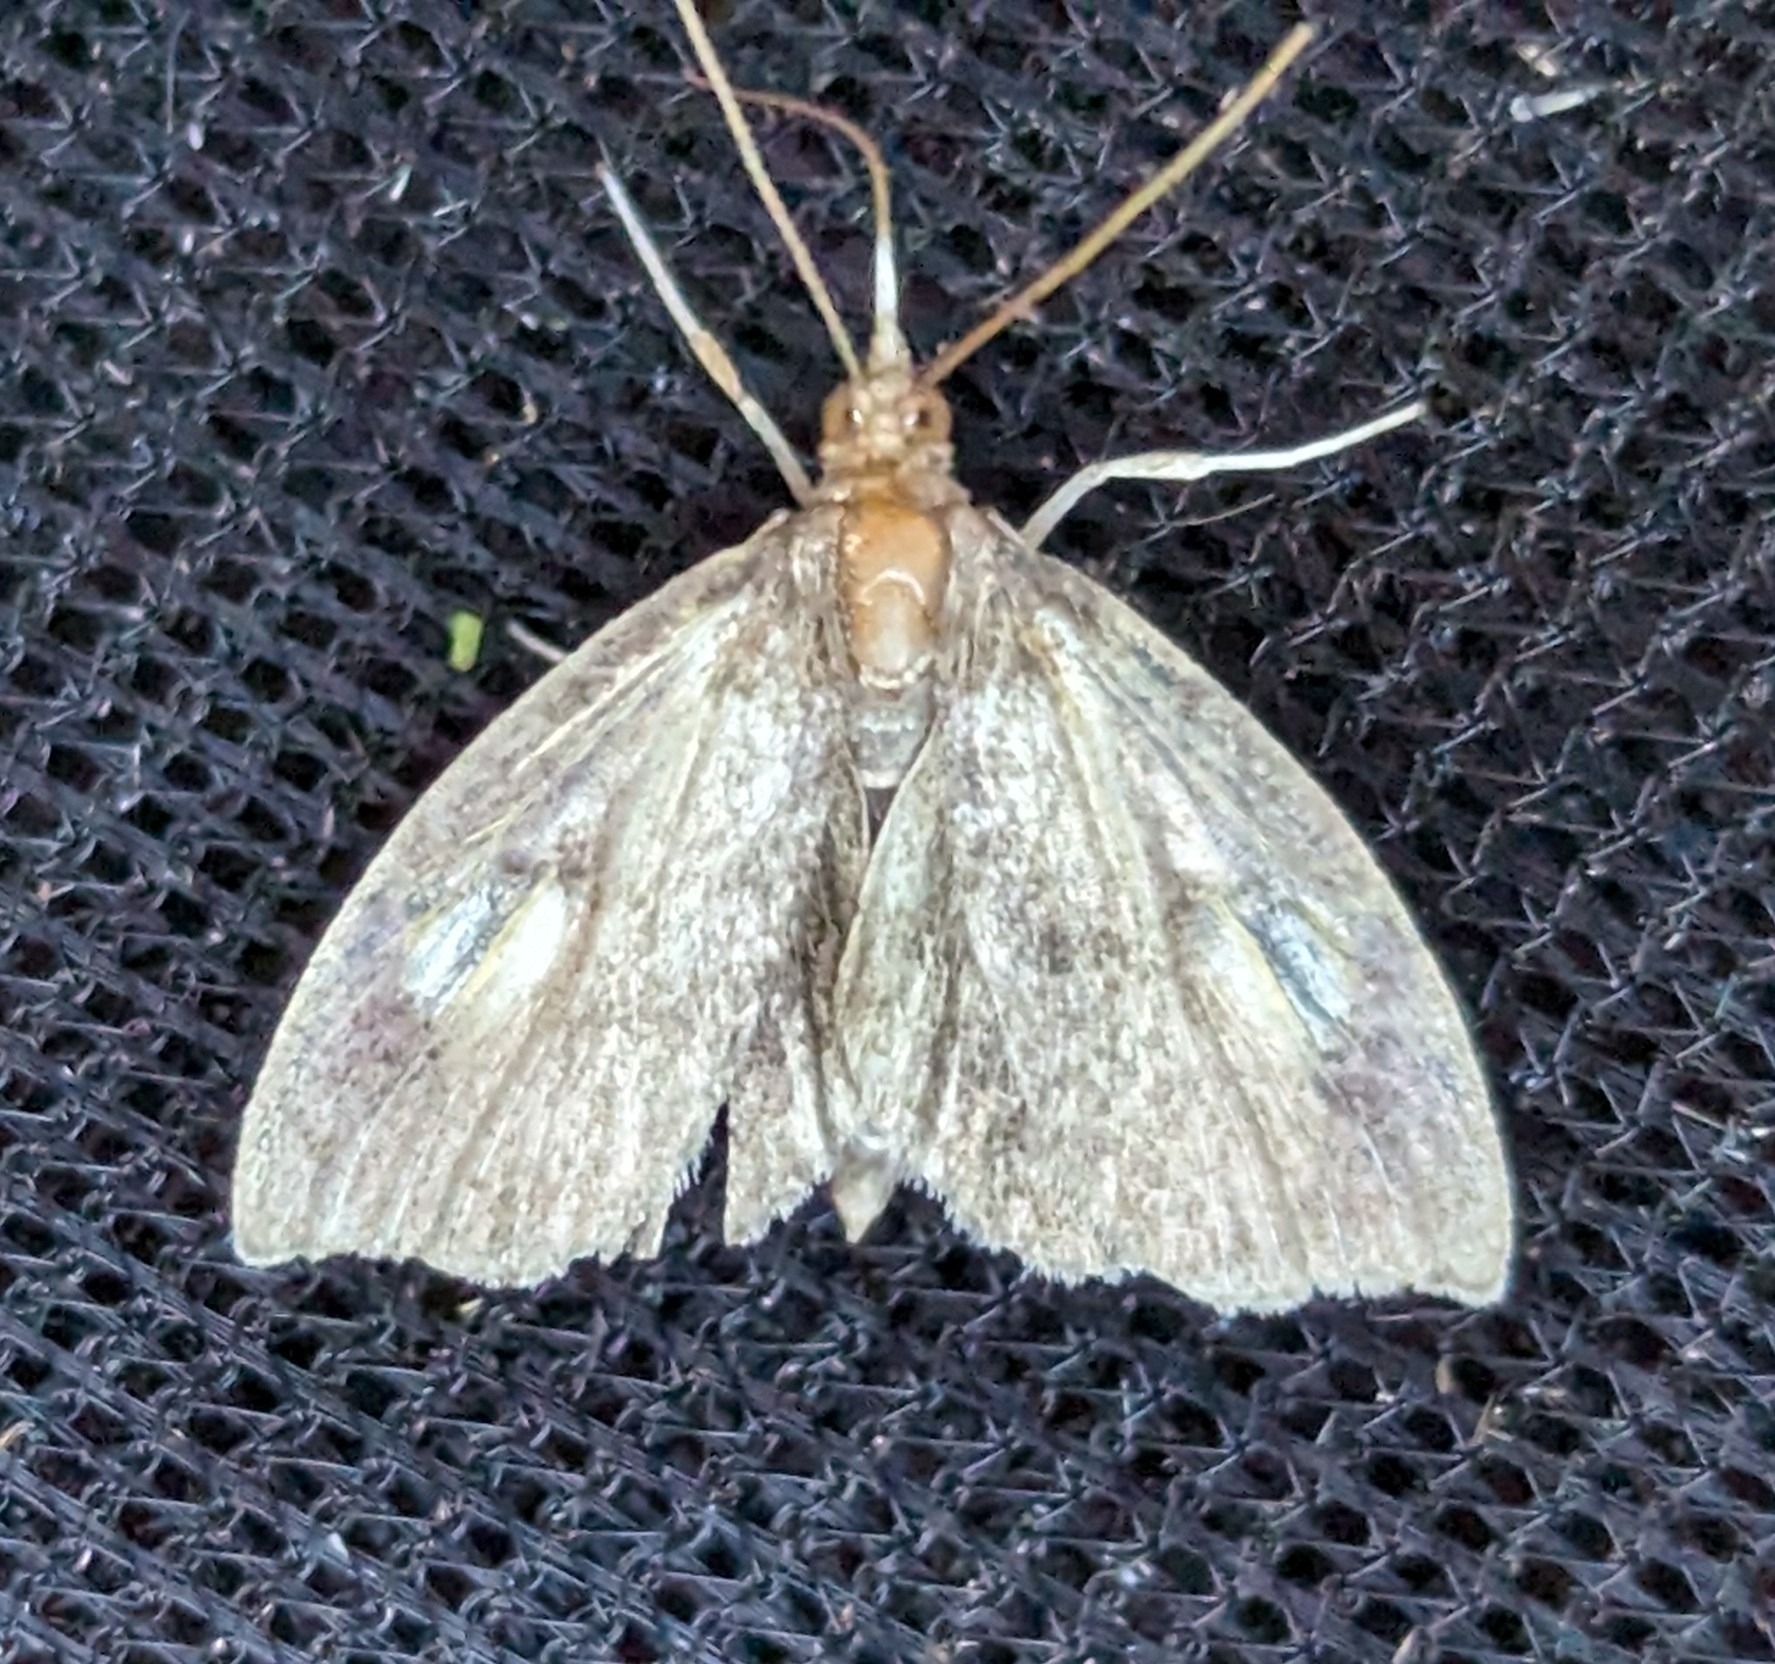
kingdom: Animalia
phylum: Arthropoda
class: Insecta
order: Lepidoptera
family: Crambidae
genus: Perispasta
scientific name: Perispasta caeculalis
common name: Titian peale's moth
